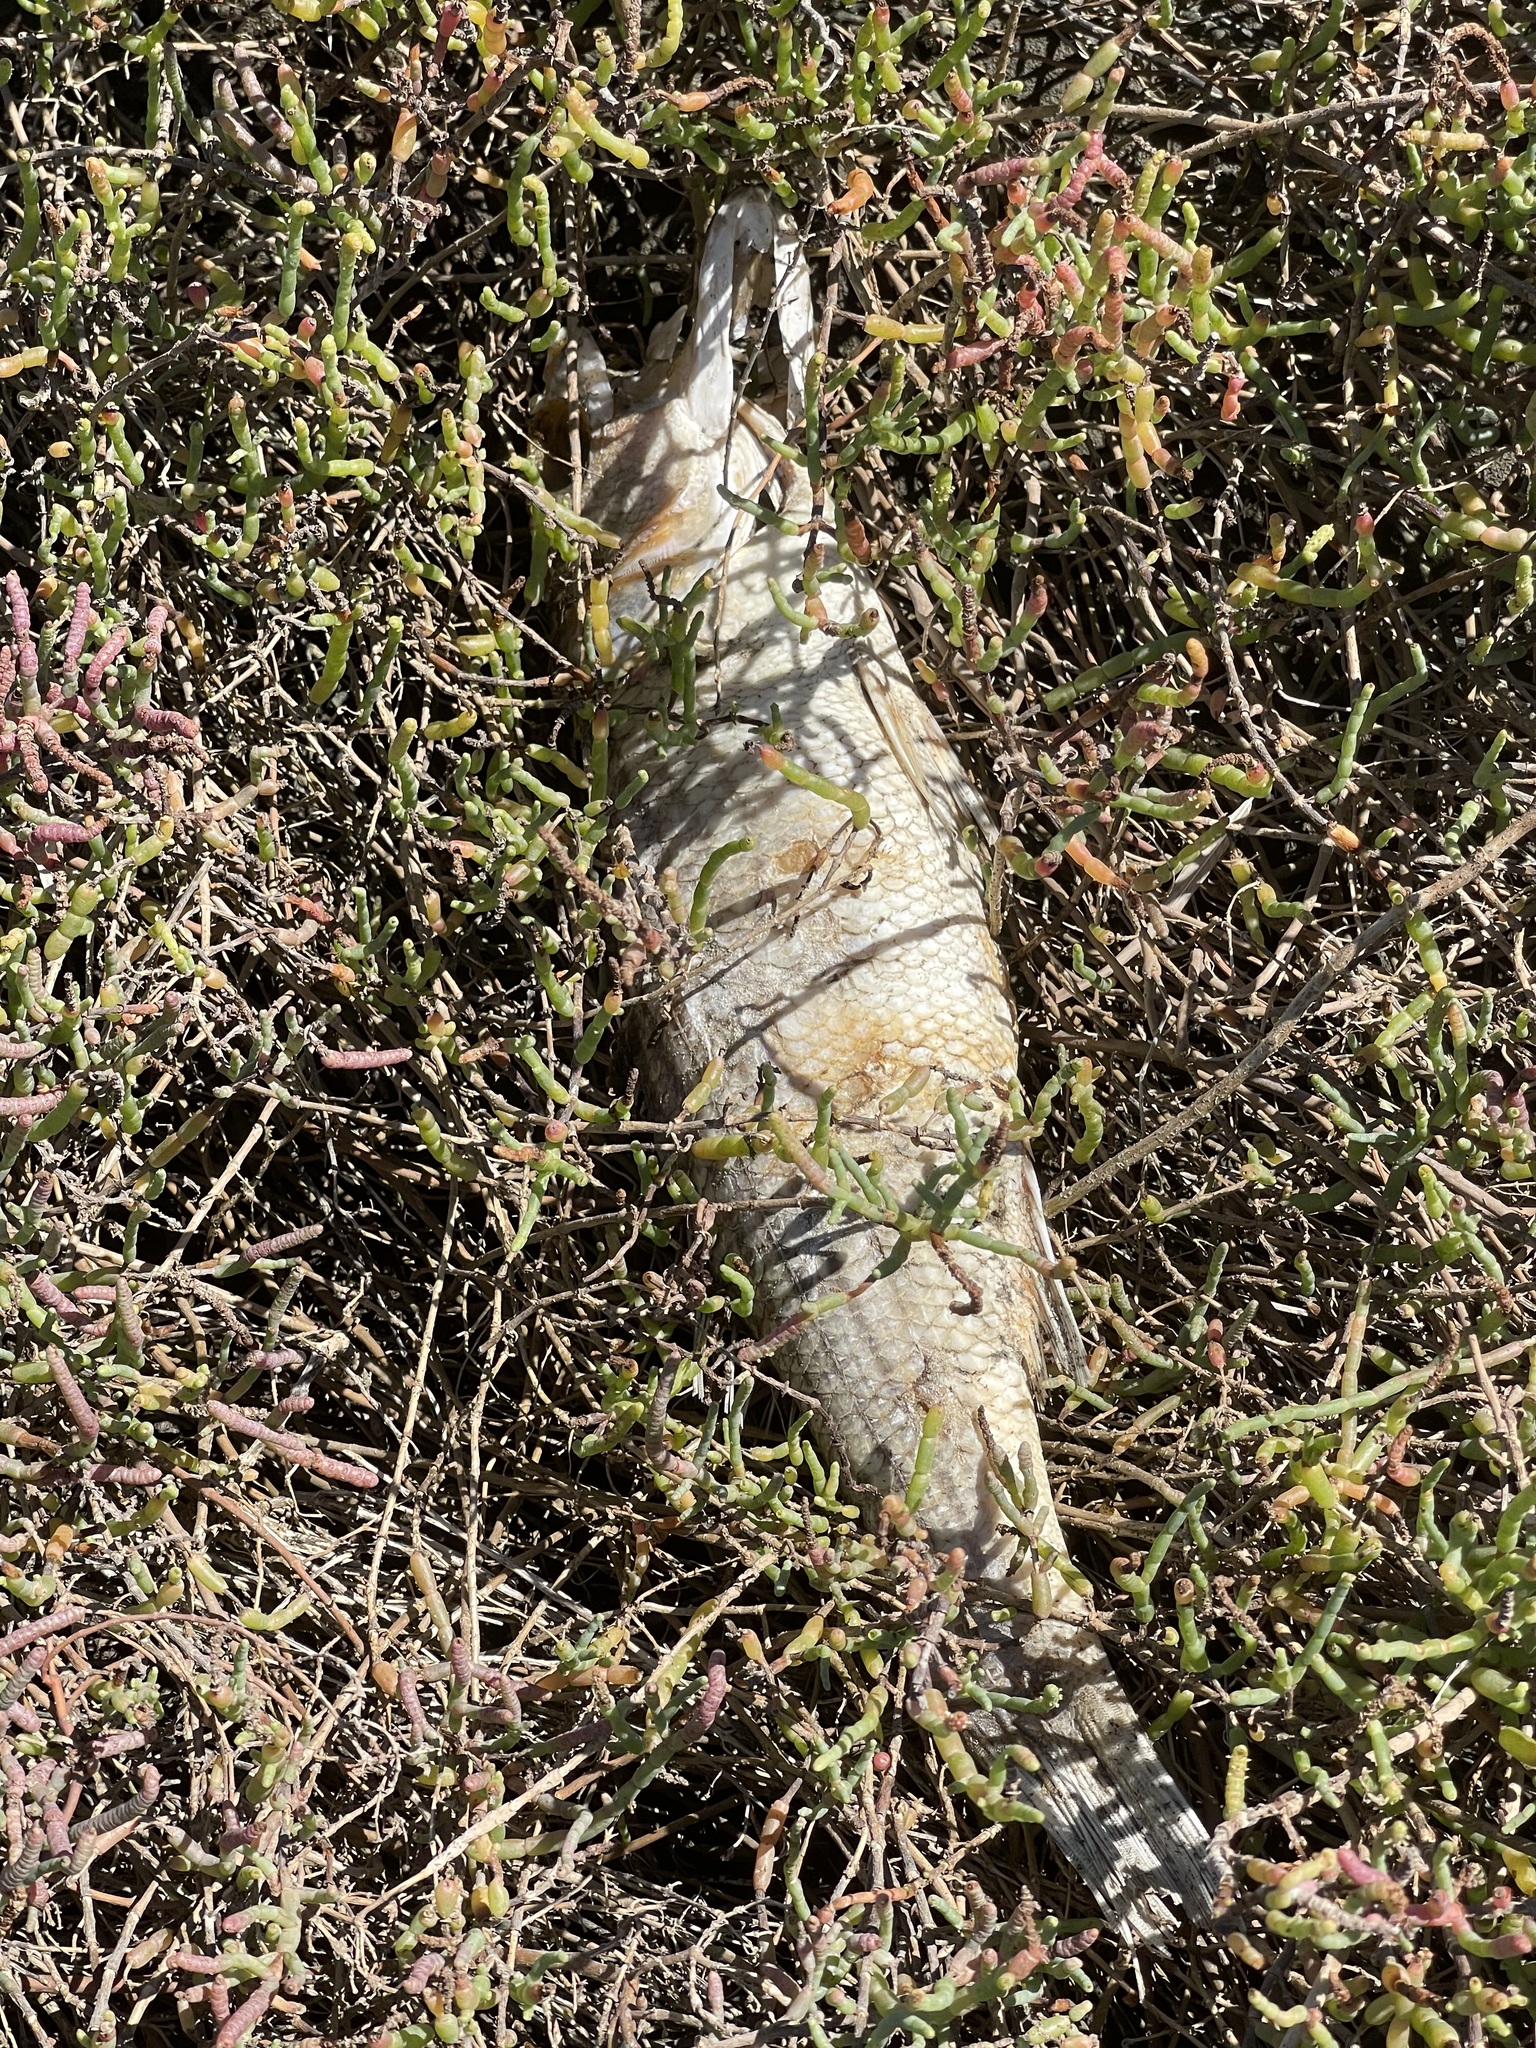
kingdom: Animalia
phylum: Chordata
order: Perciformes
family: Moronidae
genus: Morone
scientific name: Morone saxatilis
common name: Striped bass
